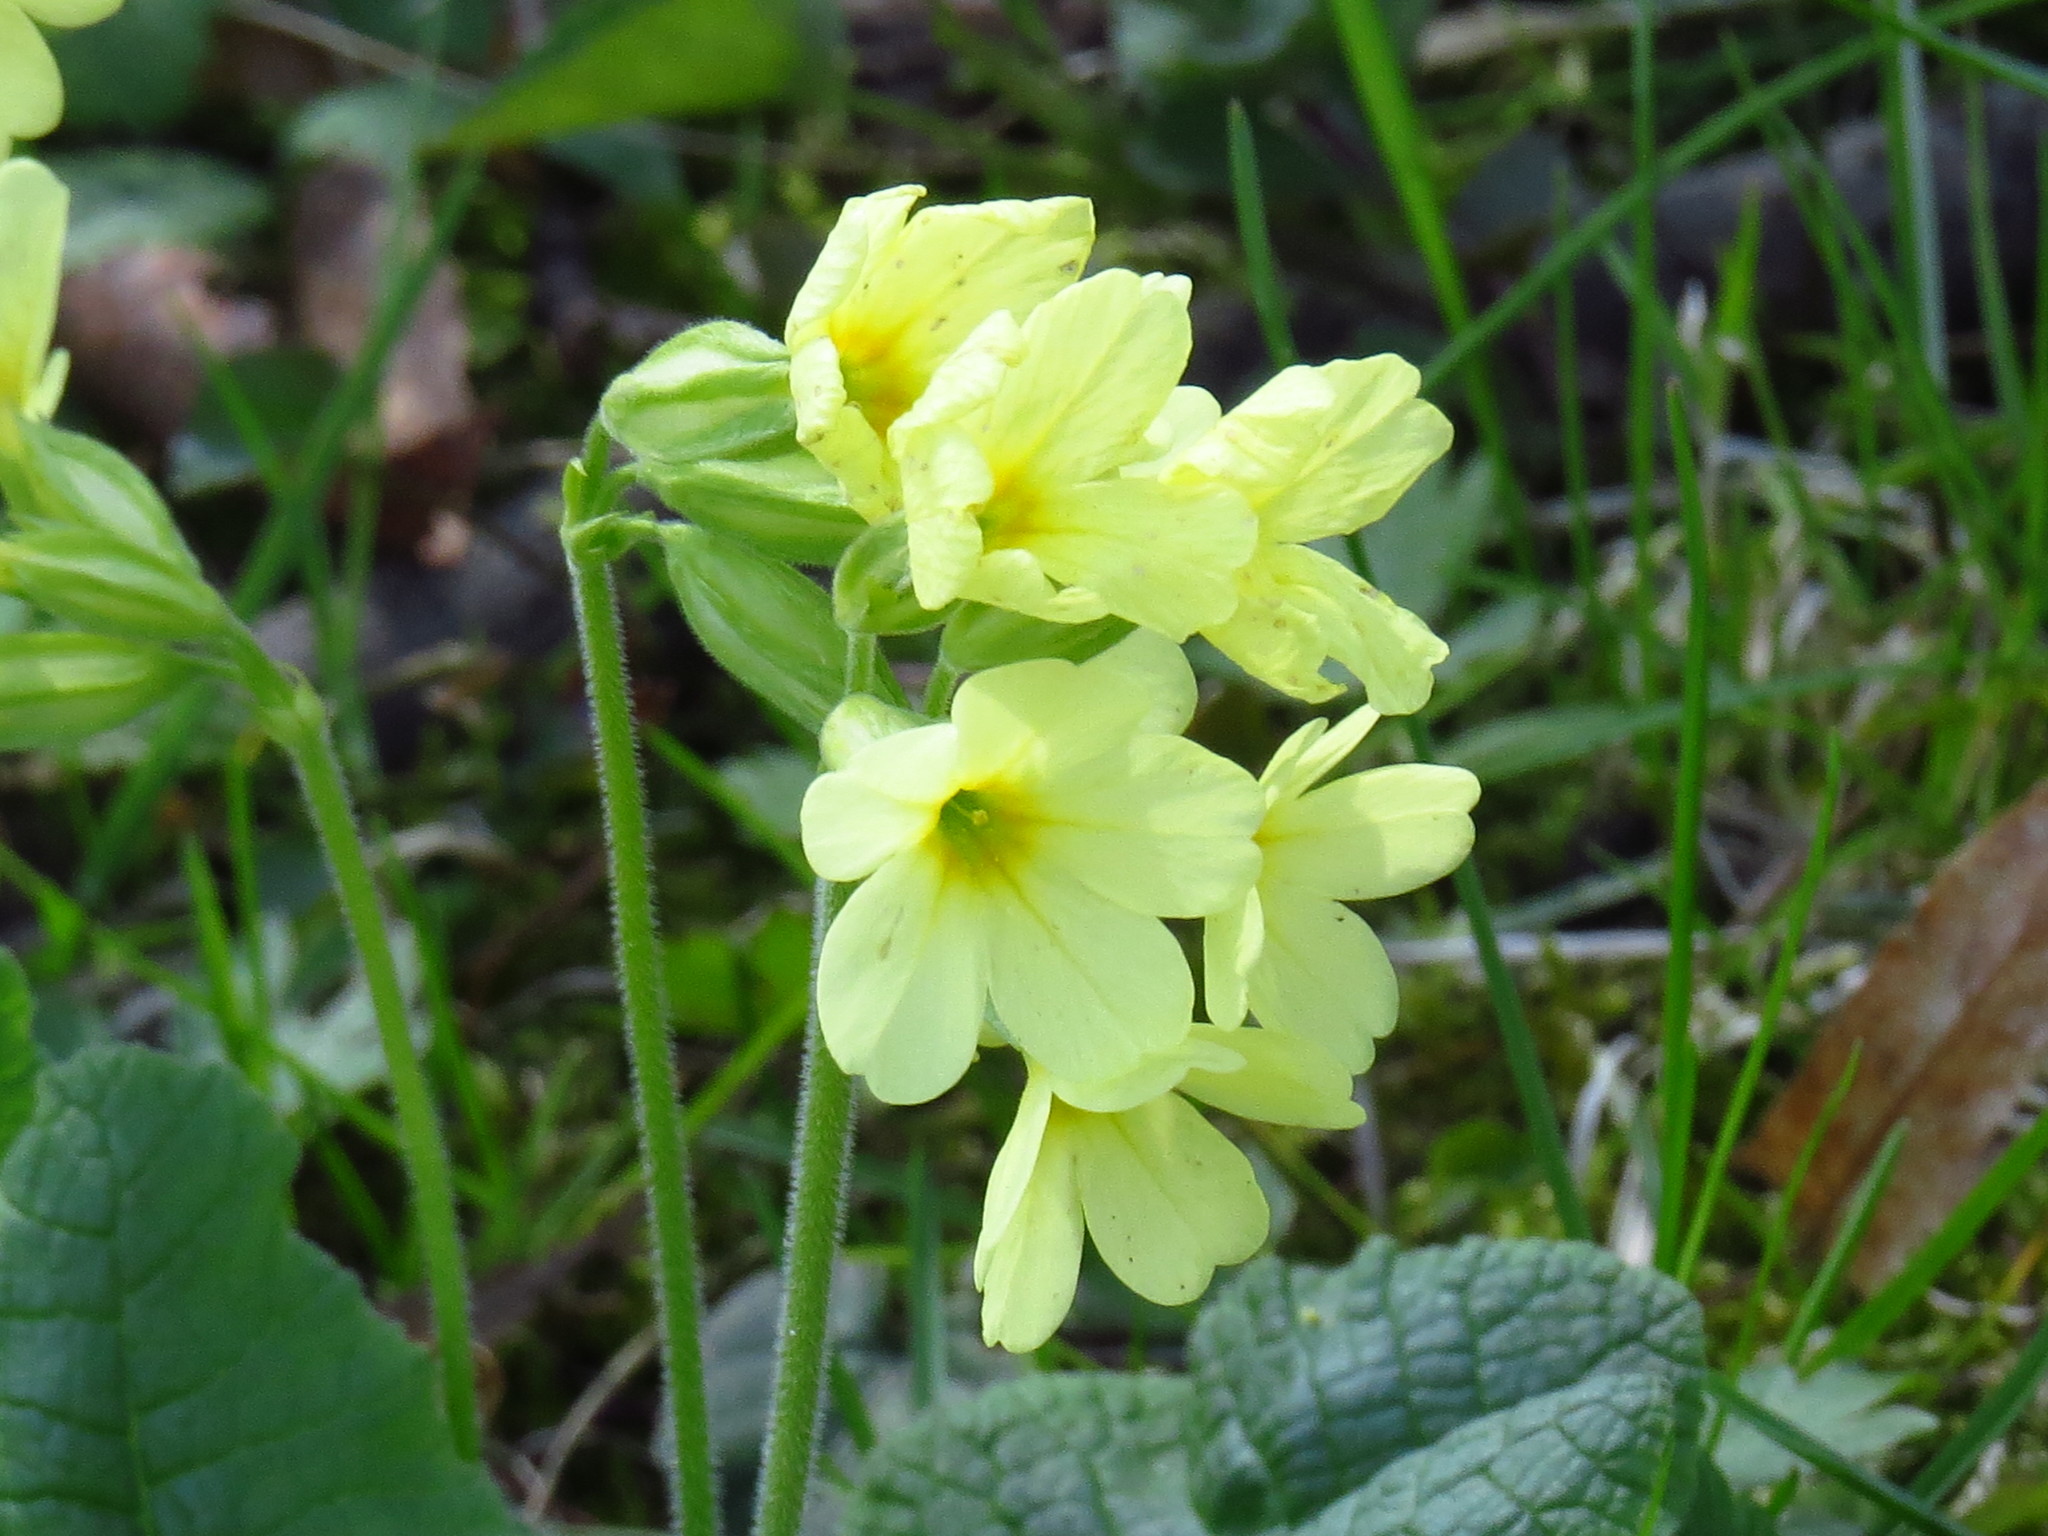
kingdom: Plantae
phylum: Tracheophyta
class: Magnoliopsida
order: Ericales
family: Primulaceae
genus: Primula
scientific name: Primula elatior
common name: Oxlip
